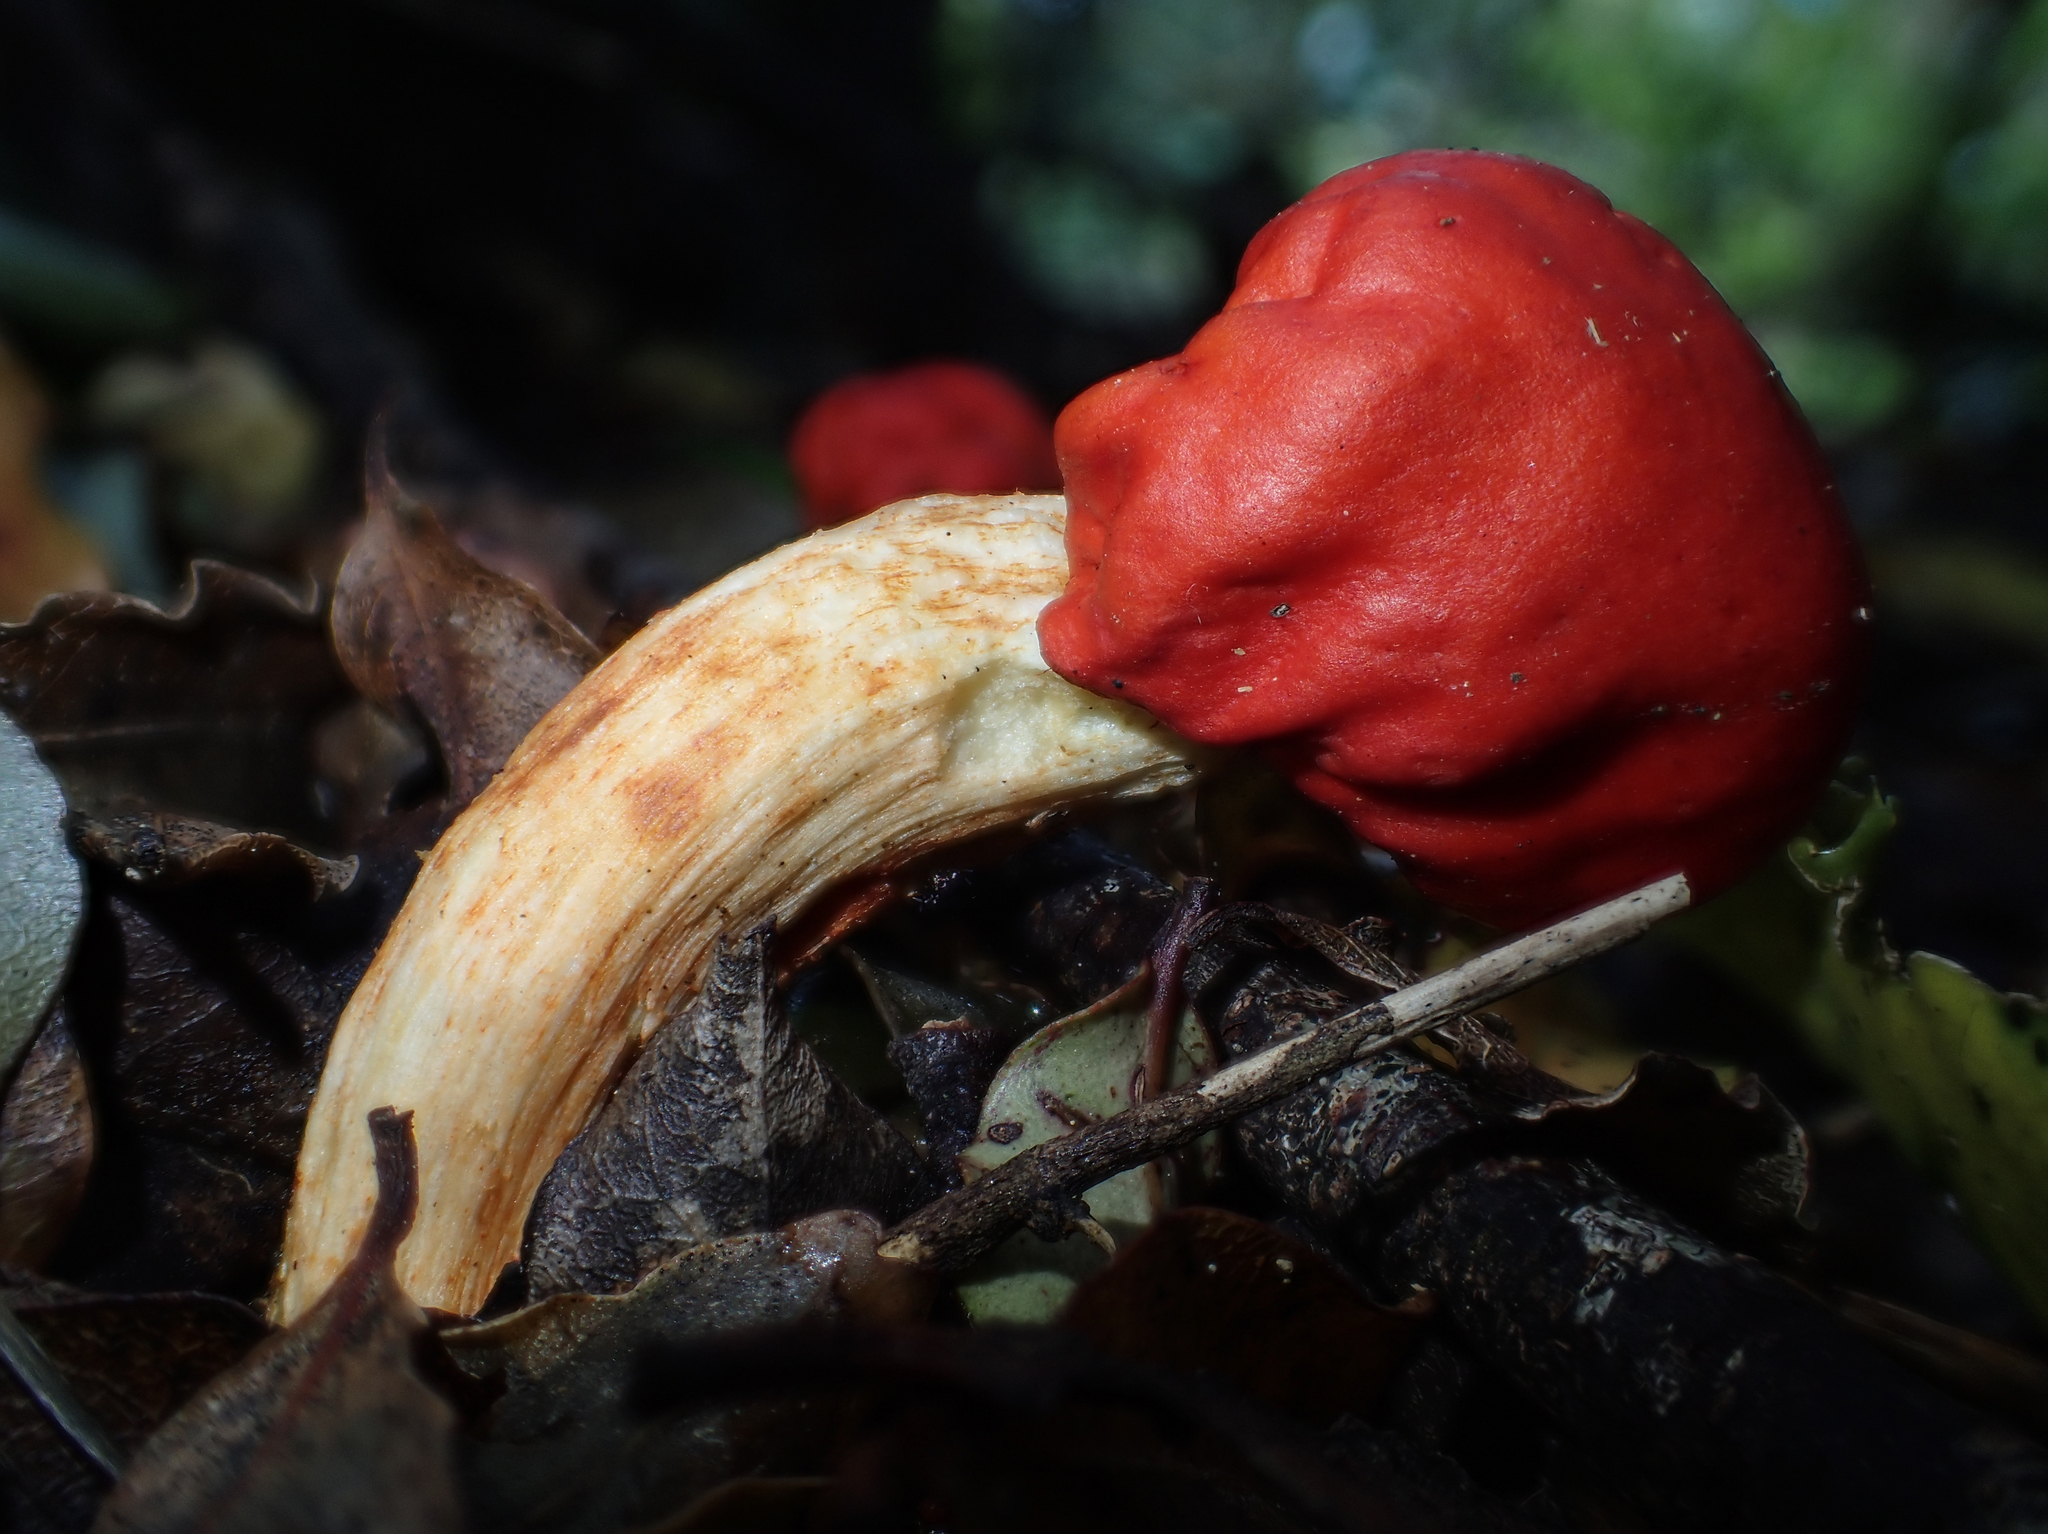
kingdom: Fungi
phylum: Basidiomycota
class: Agaricomycetes
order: Agaricales
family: Strophariaceae
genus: Leratiomyces
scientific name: Leratiomyces erythrocephalus
